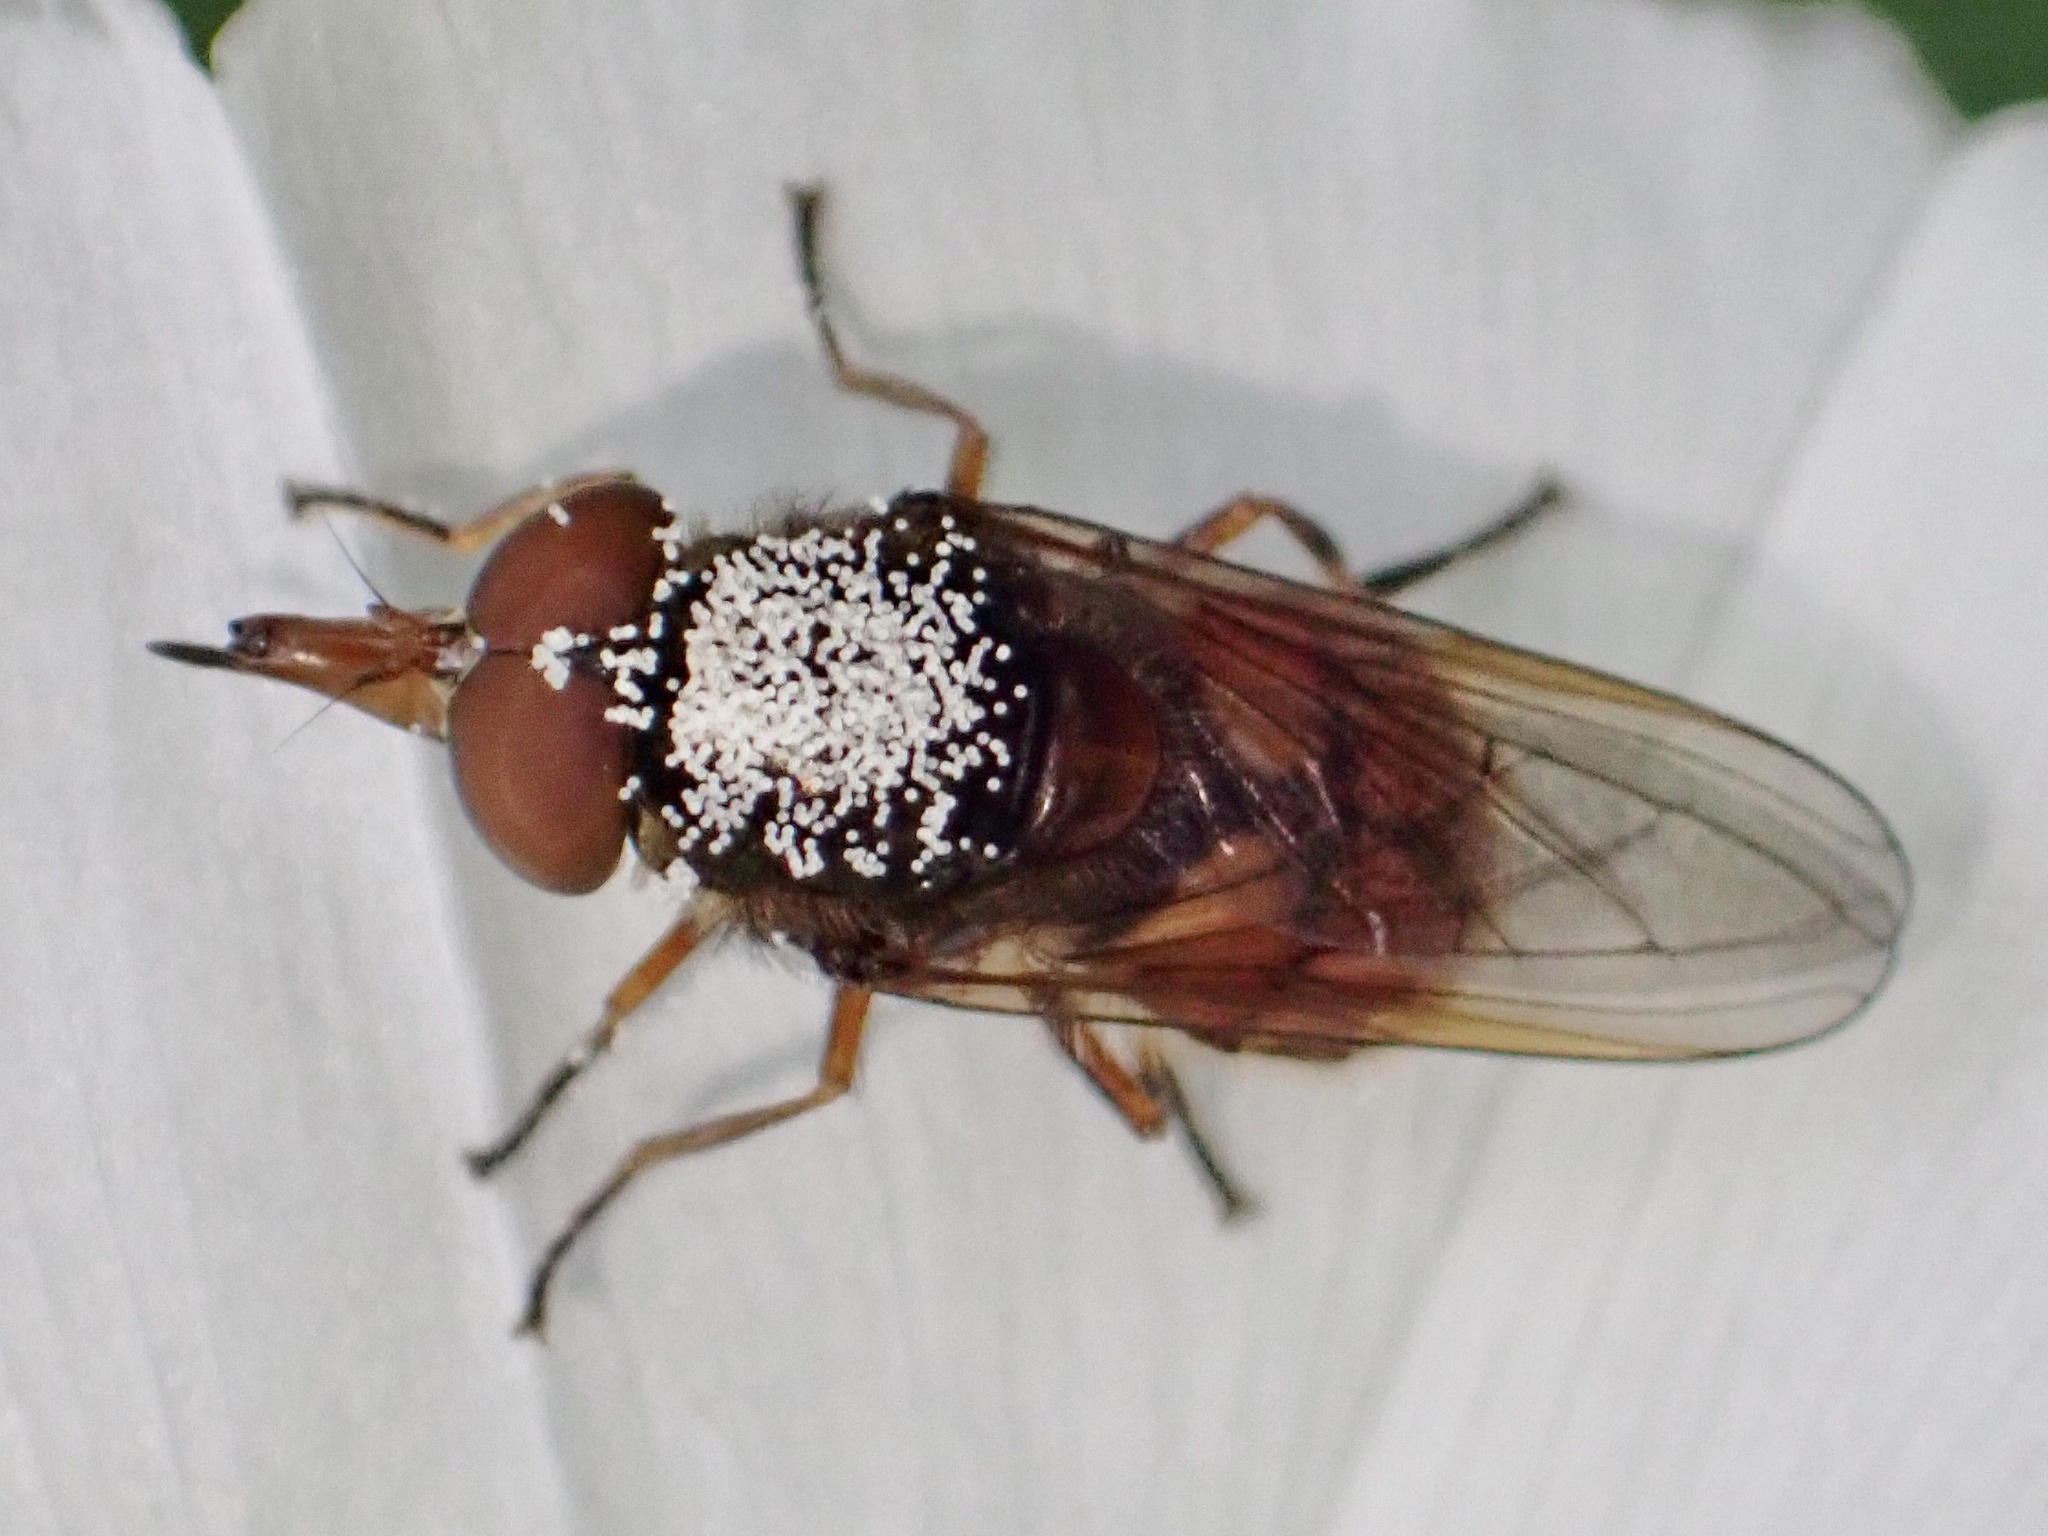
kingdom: Animalia
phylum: Arthropoda
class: Insecta
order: Diptera
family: Syrphidae
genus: Rhingia
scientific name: Rhingia campestris
